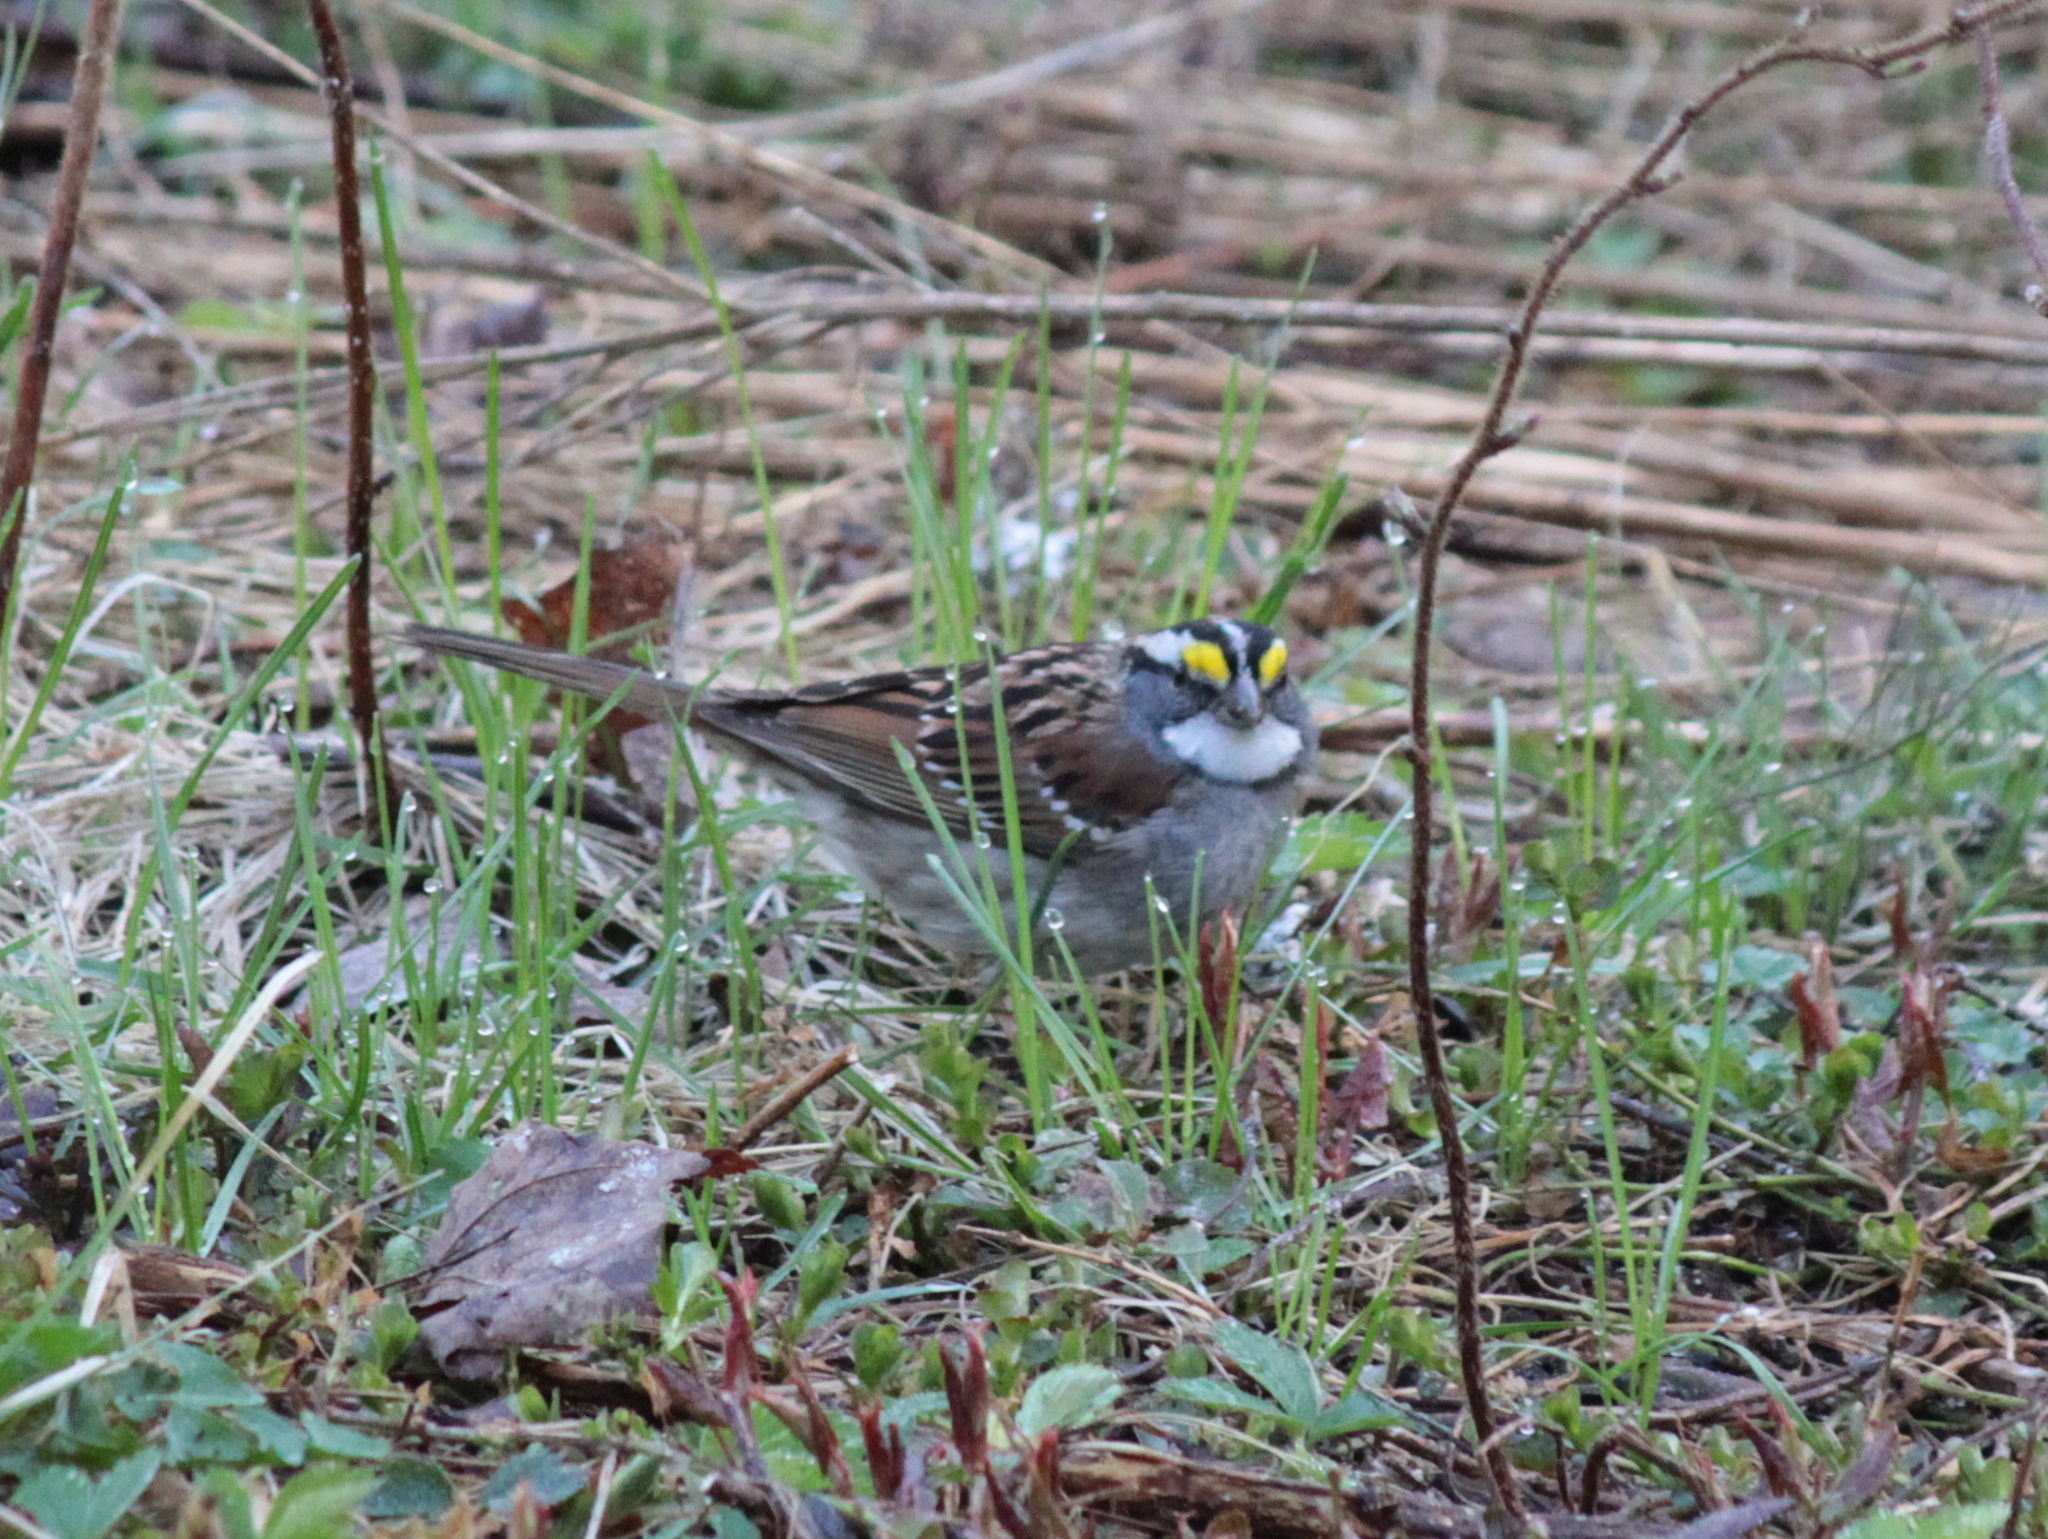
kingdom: Animalia
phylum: Chordata
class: Aves
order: Passeriformes
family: Passerellidae
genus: Zonotrichia
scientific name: Zonotrichia albicollis
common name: White-throated sparrow
